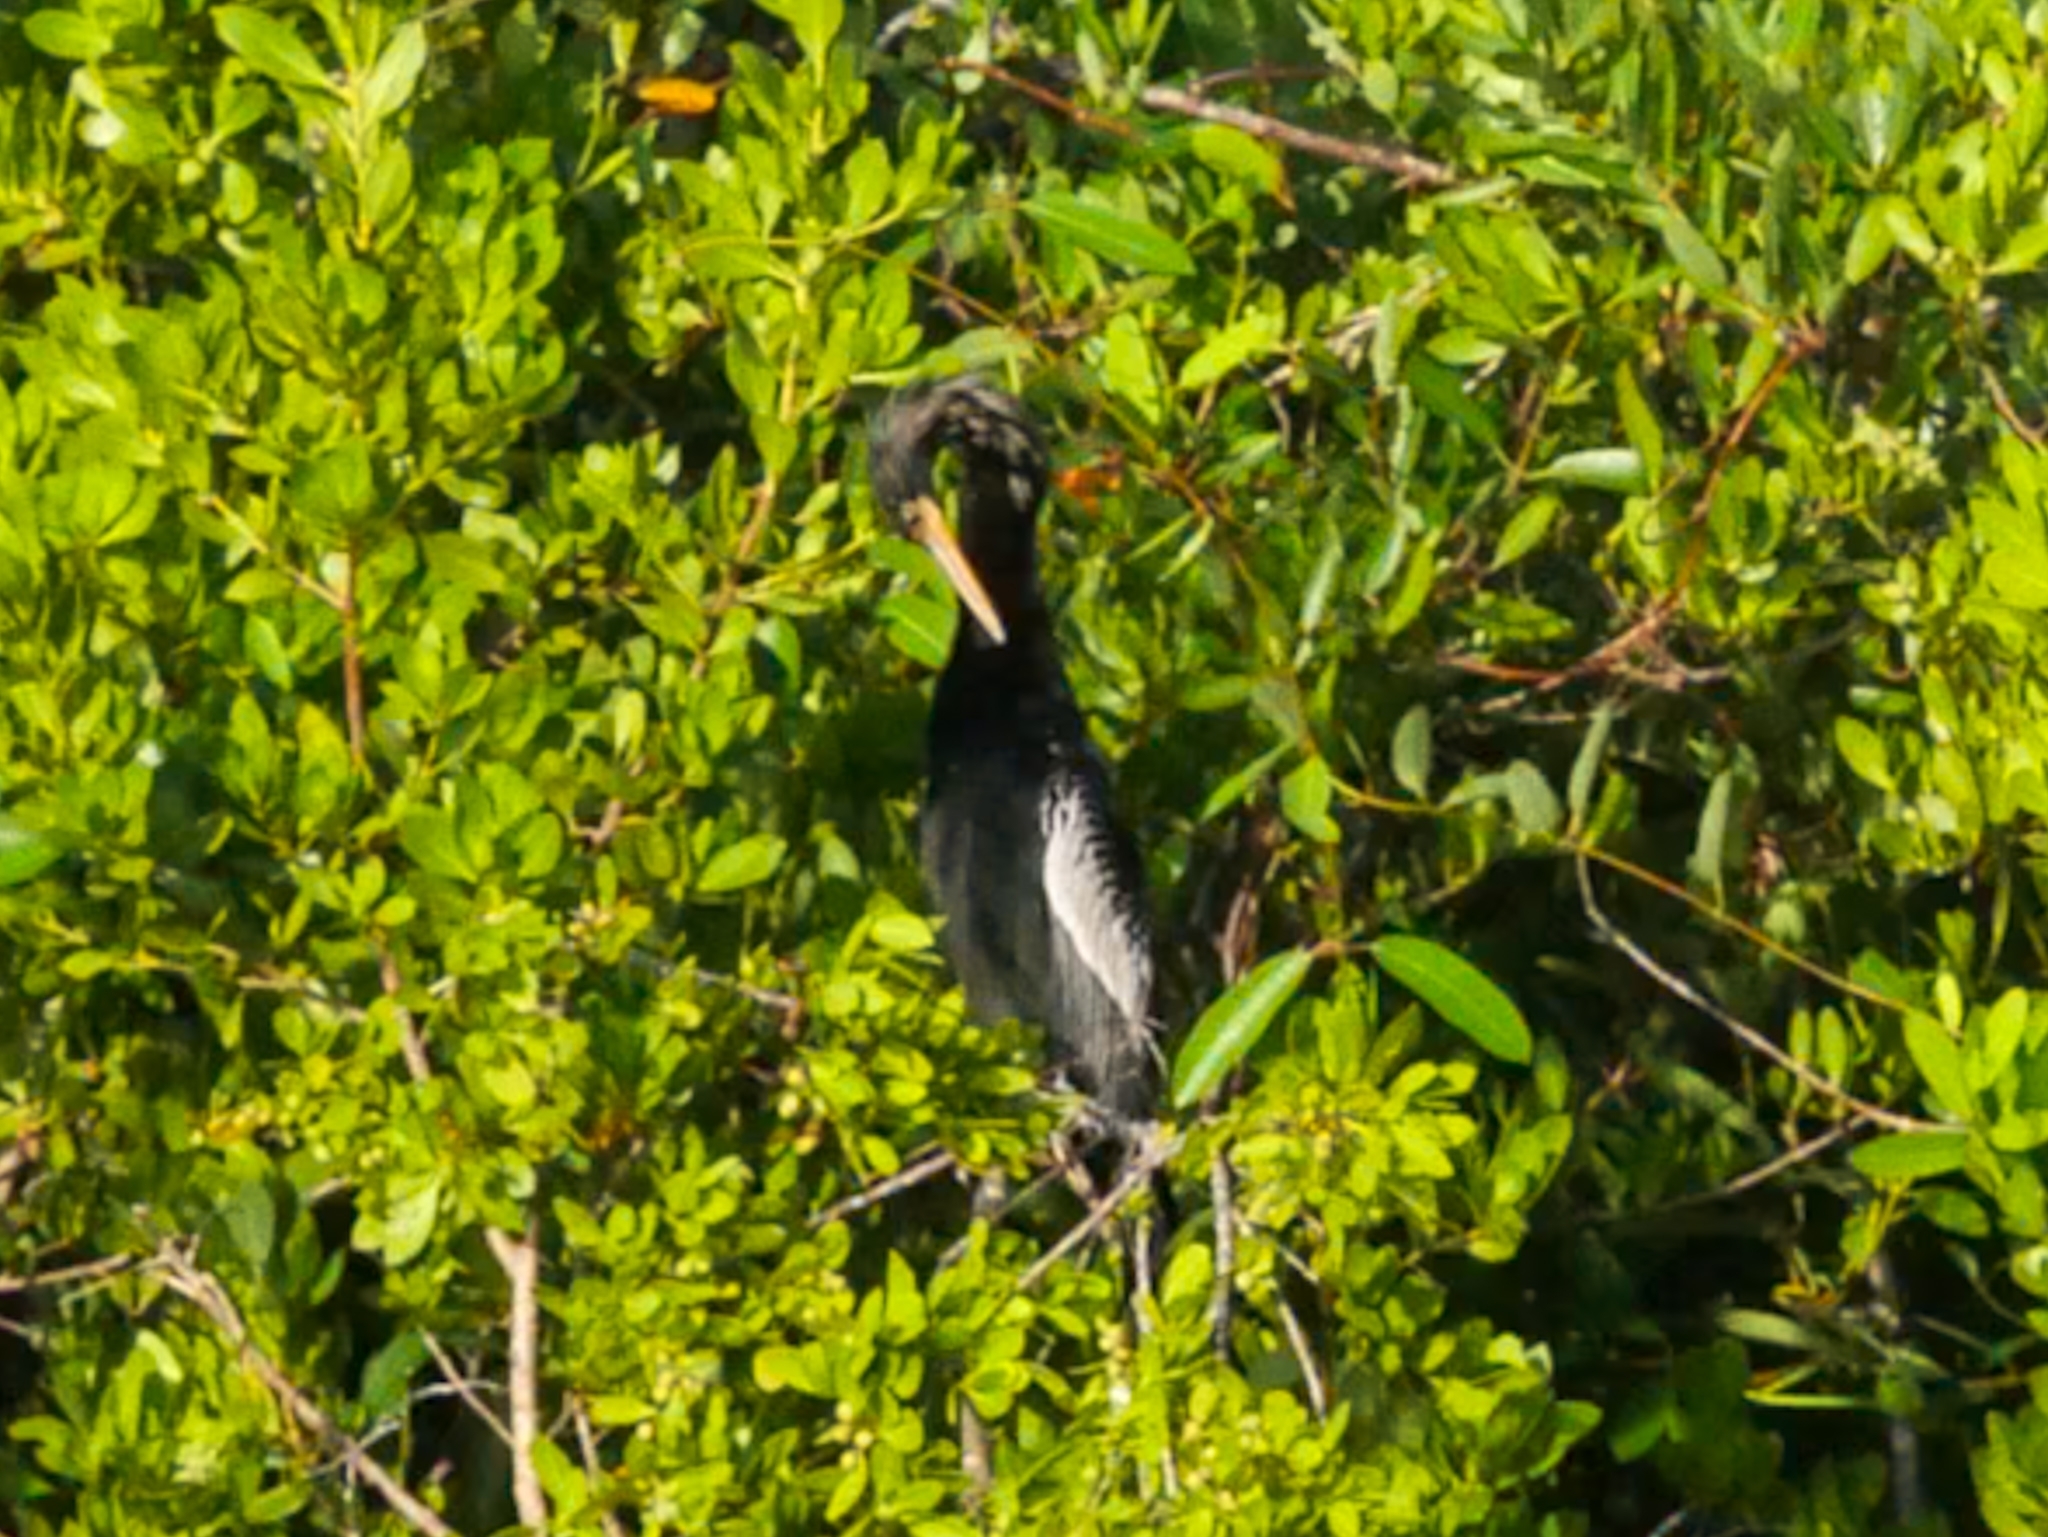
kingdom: Animalia
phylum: Chordata
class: Aves
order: Suliformes
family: Anhingidae
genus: Anhinga
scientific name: Anhinga anhinga
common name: Anhinga
